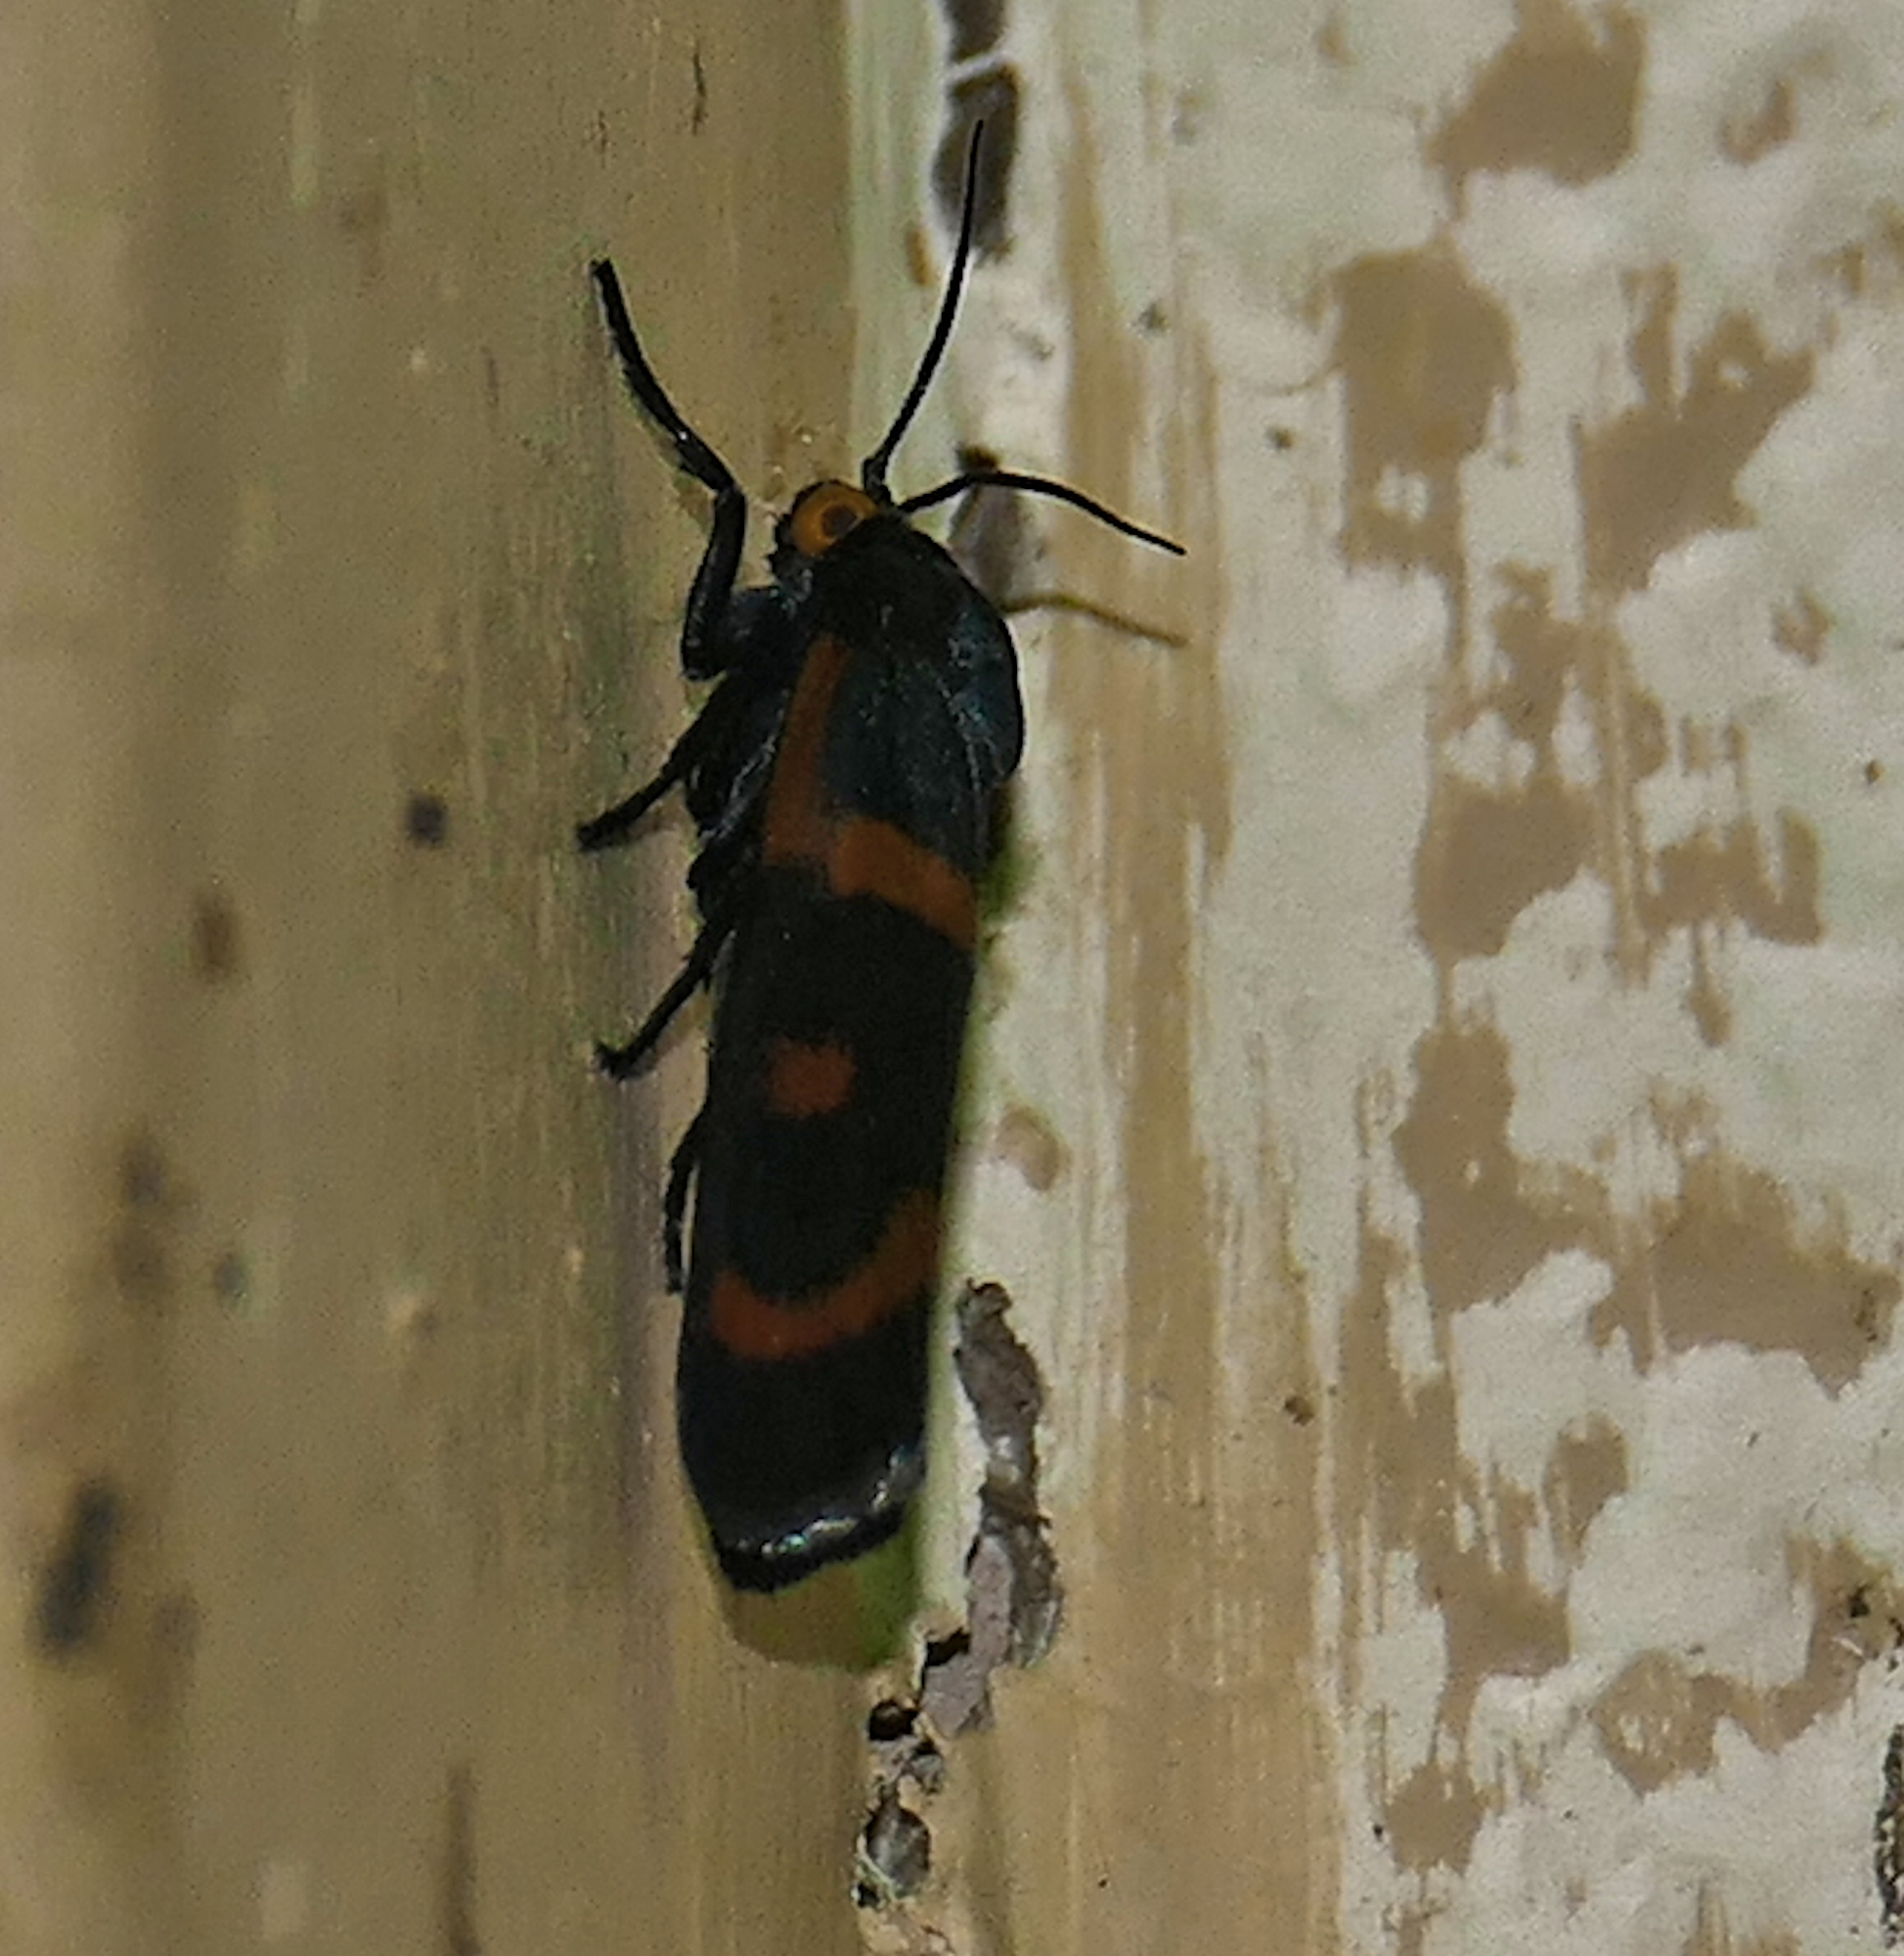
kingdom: Animalia
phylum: Arthropoda
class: Insecta
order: Lepidoptera
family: Noctuidae
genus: Cydosia
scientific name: Cydosia aurivitta
